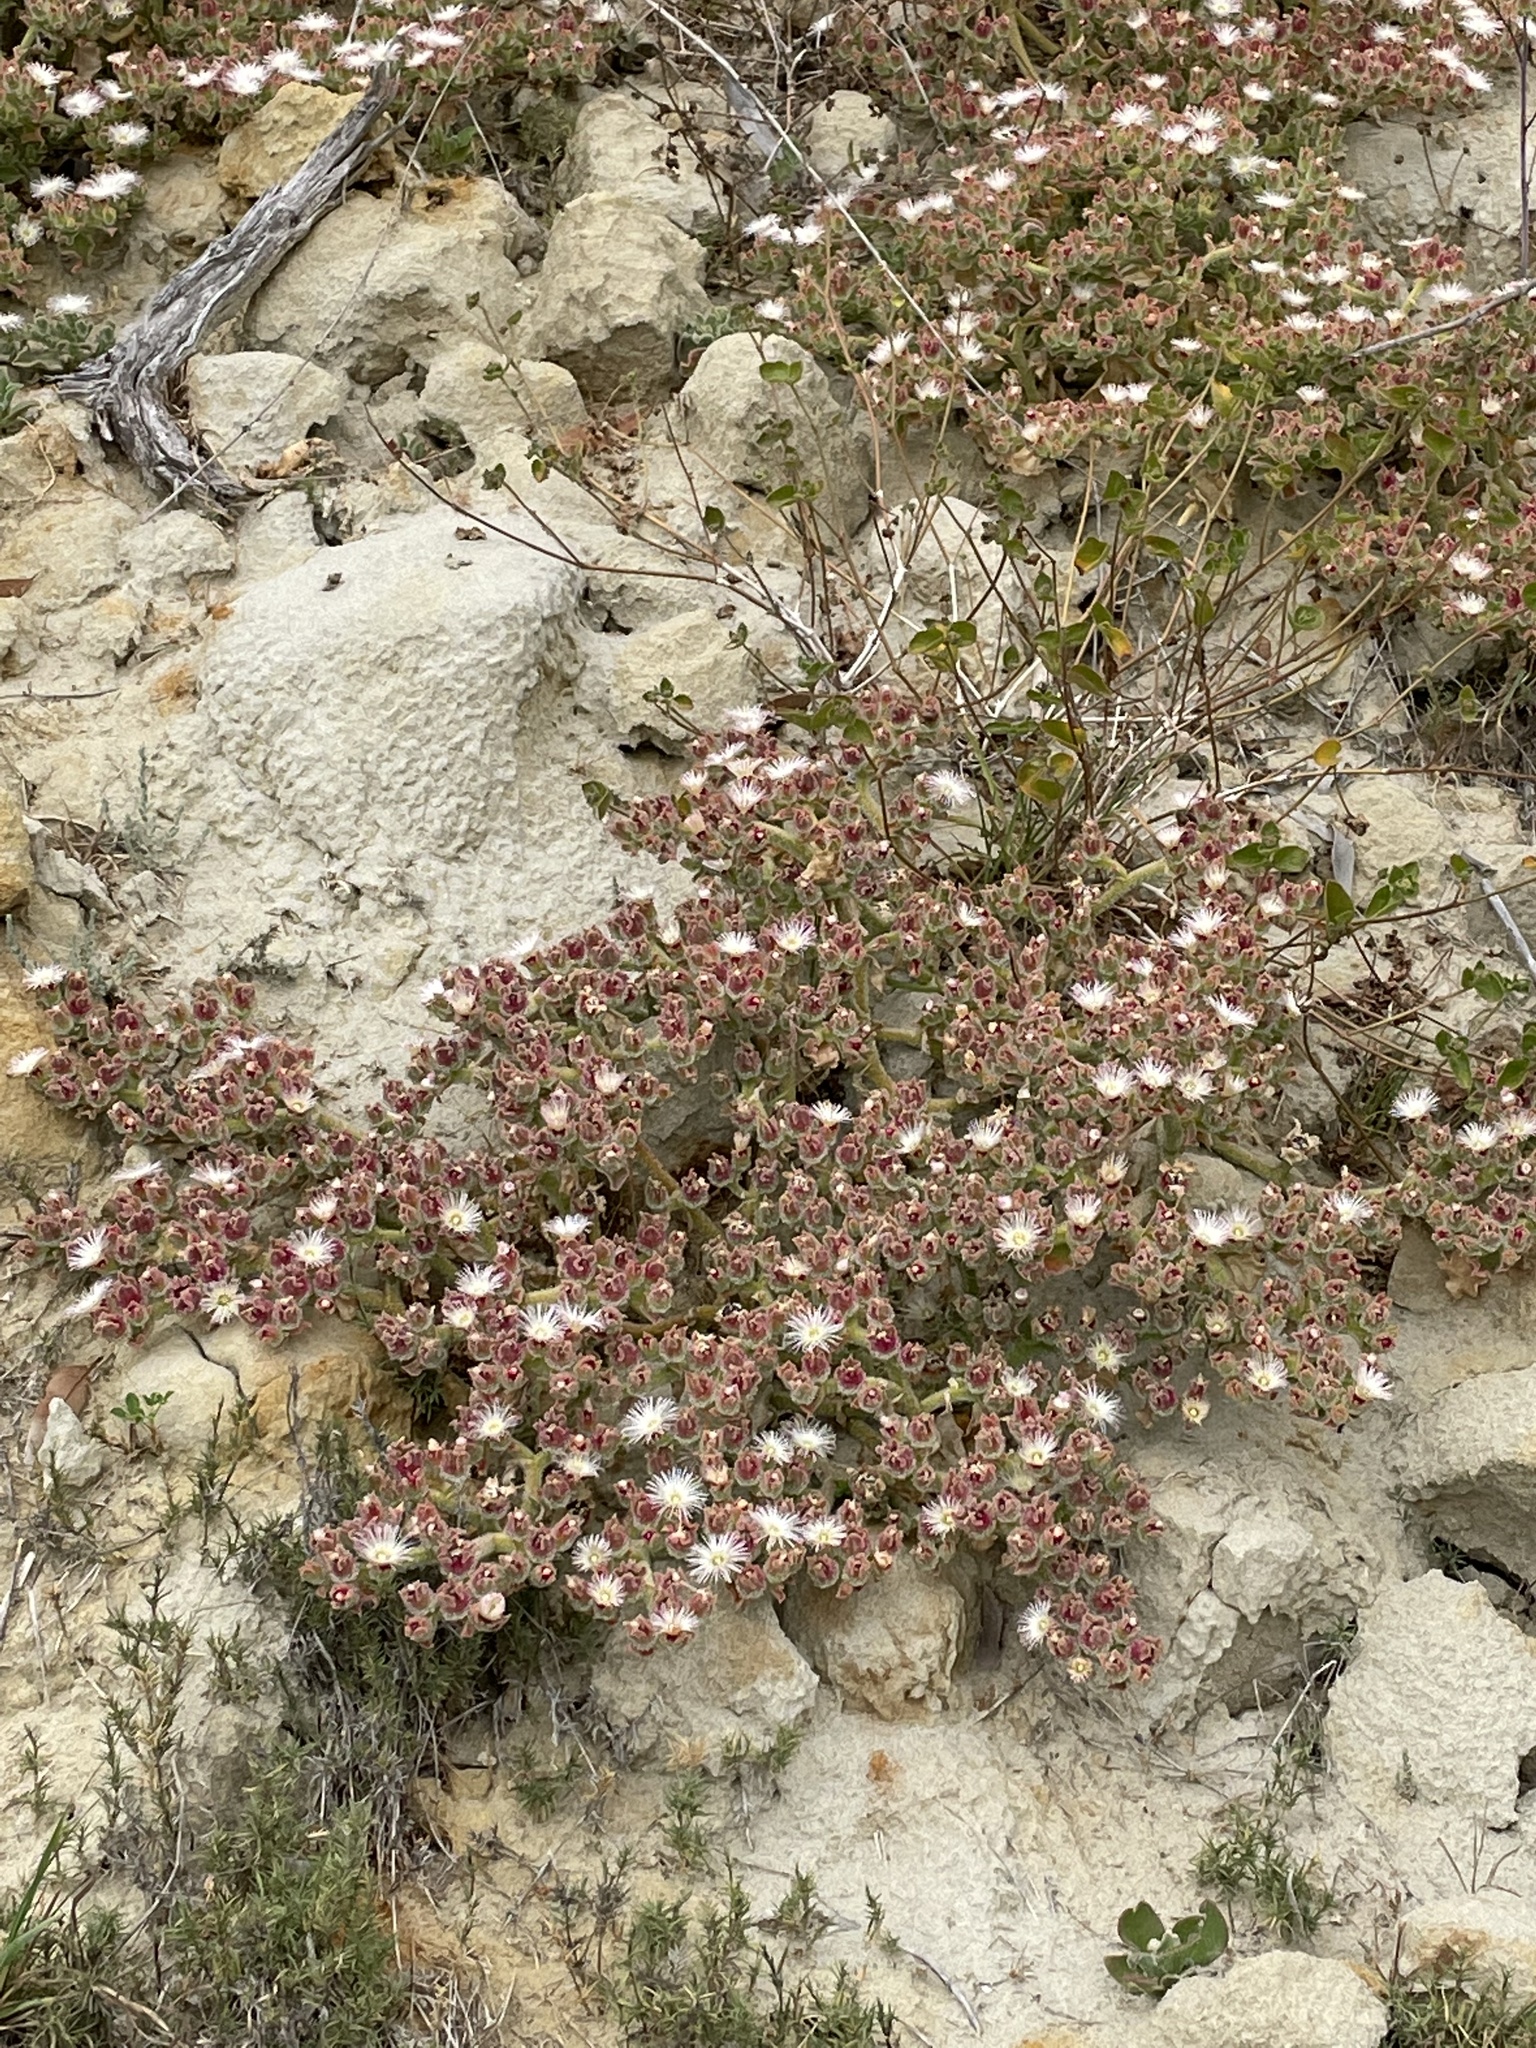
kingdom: Plantae
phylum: Tracheophyta
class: Magnoliopsida
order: Caryophyllales
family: Aizoaceae
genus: Mesembryanthemum
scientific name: Mesembryanthemum crystallinum
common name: Common iceplant
